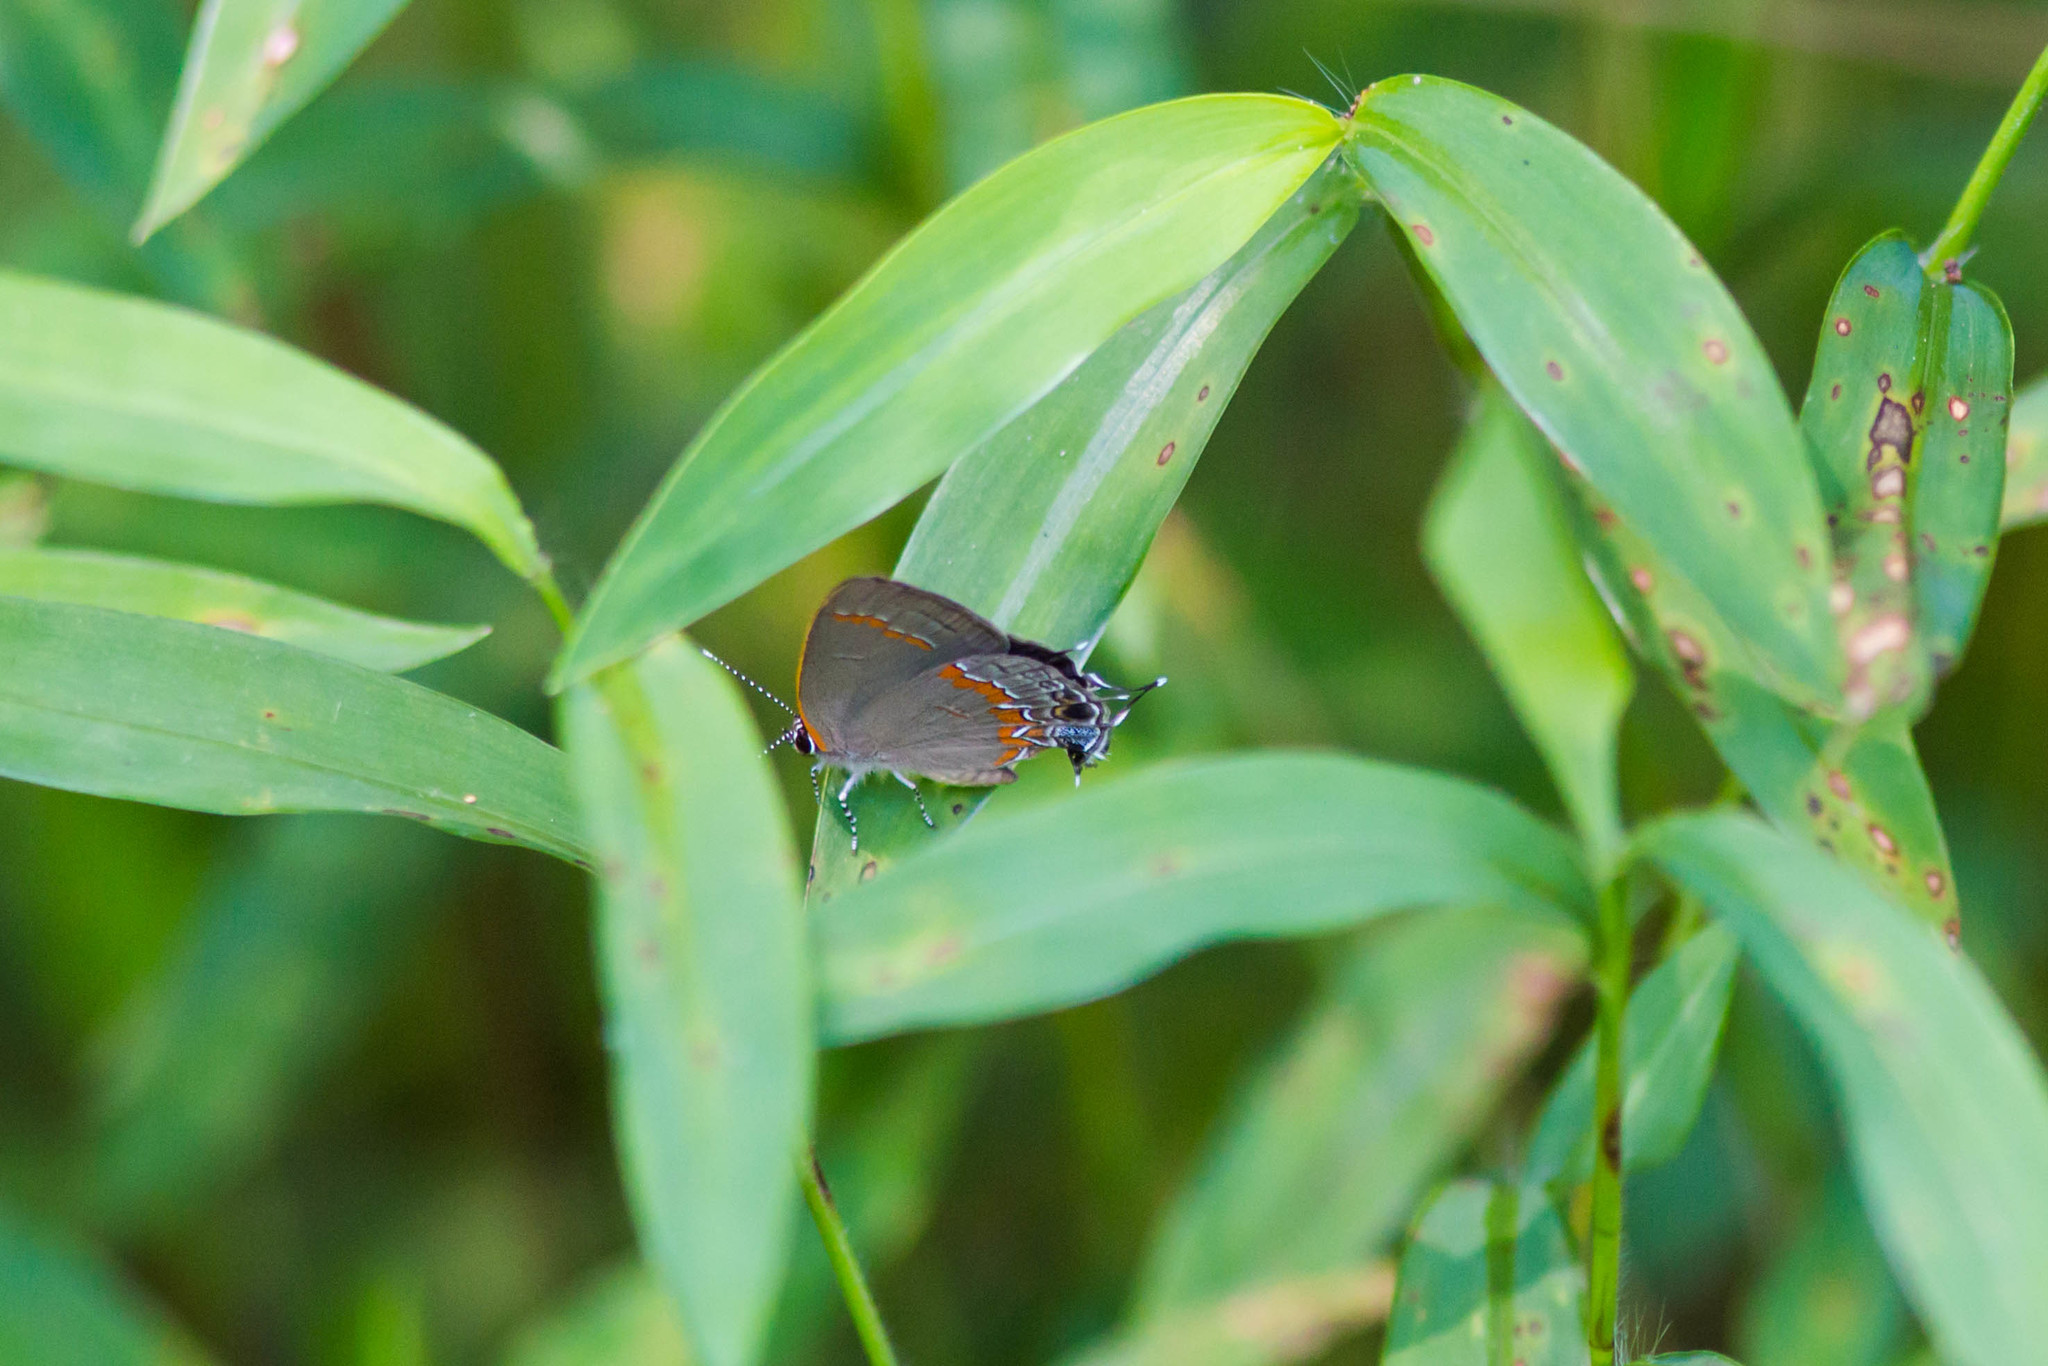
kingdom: Animalia
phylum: Arthropoda
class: Insecta
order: Lepidoptera
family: Lycaenidae
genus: Calycopis
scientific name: Calycopis cecrops
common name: Red-banded hairstreak
